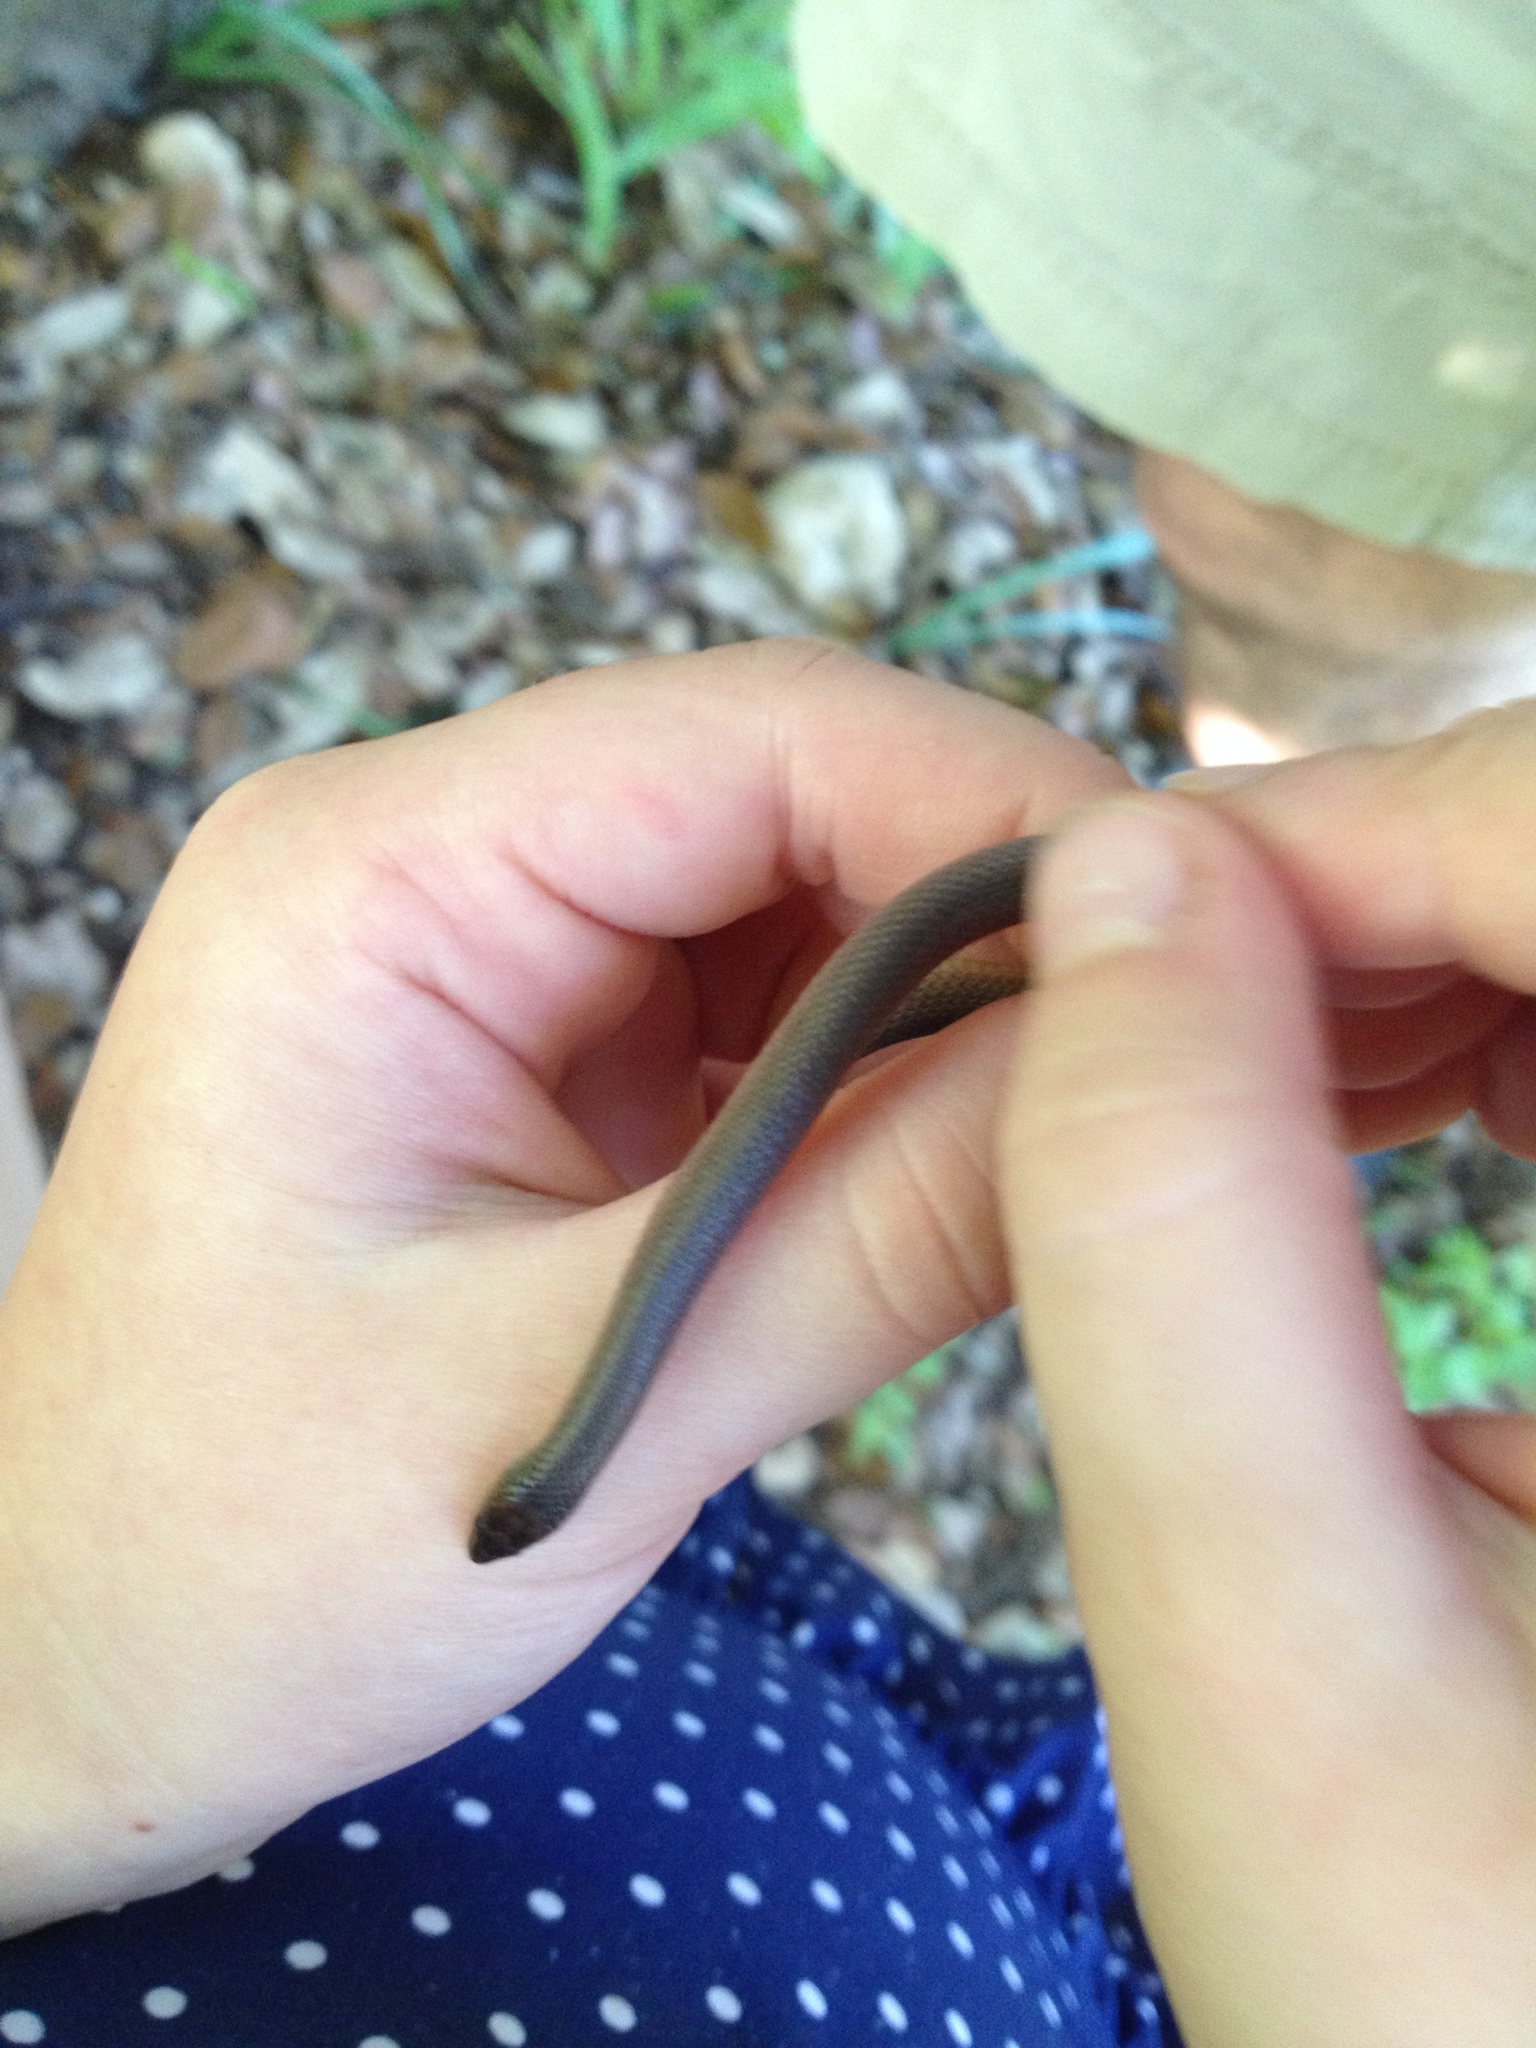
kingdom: Animalia
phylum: Chordata
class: Squamata
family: Colubridae
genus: Haldea
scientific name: Haldea striatula
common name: Rough earth snake
